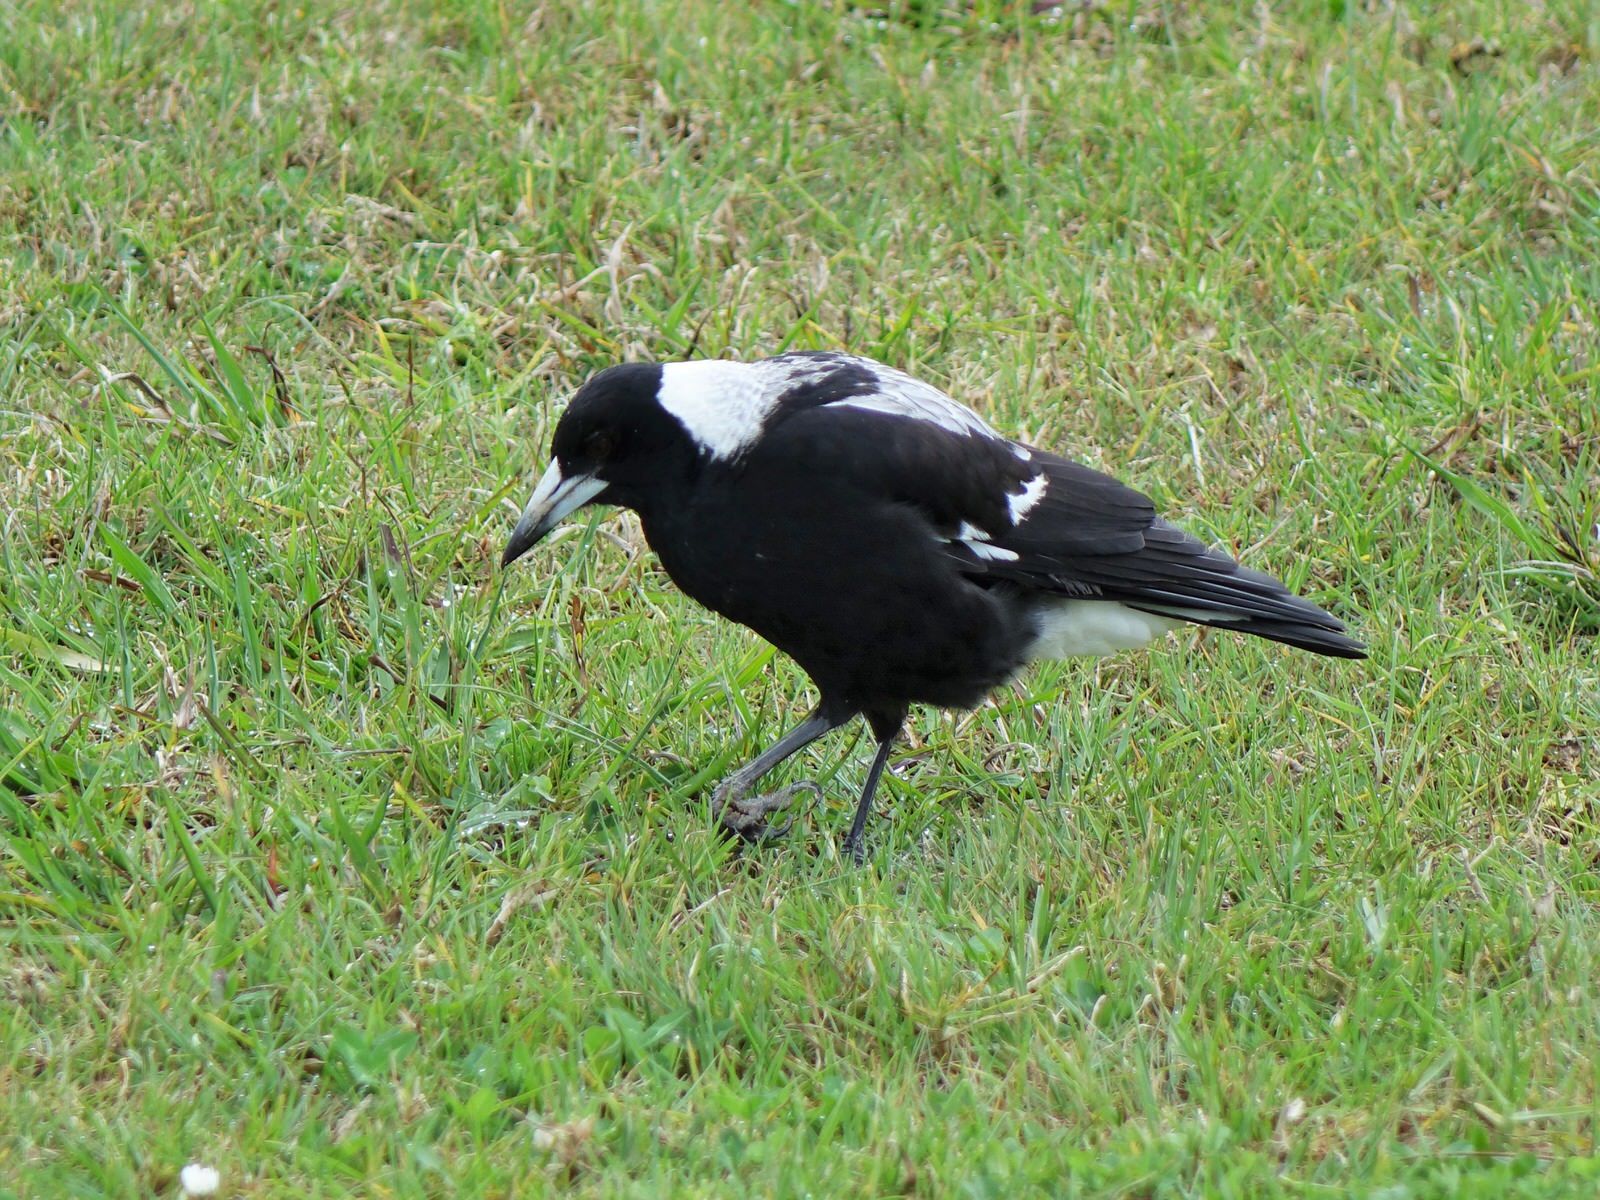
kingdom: Animalia
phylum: Chordata
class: Aves
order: Passeriformes
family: Cracticidae
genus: Gymnorhina
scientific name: Gymnorhina tibicen
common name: Australian magpie
